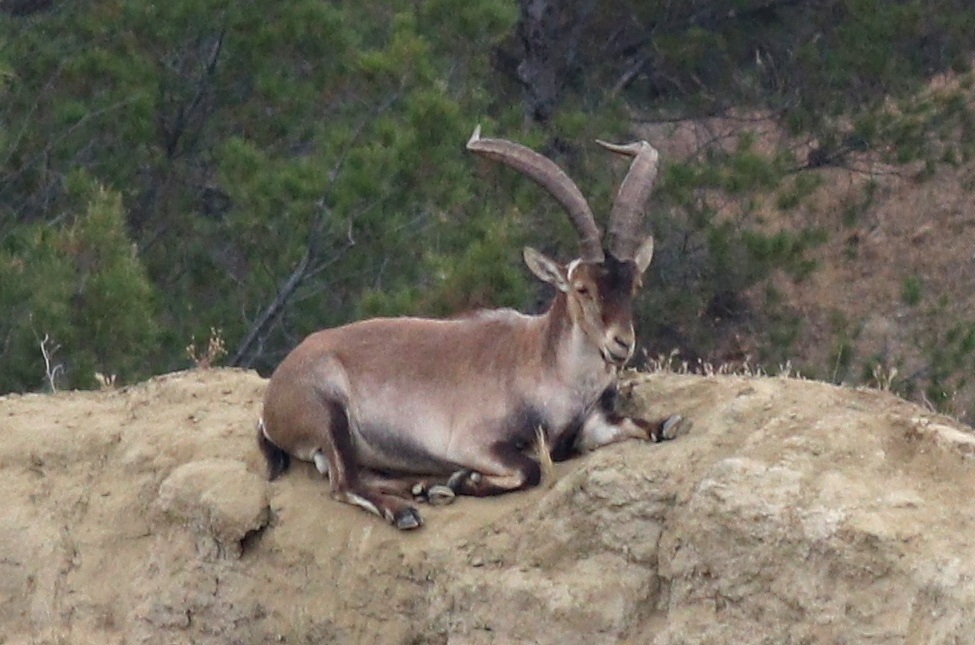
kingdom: Animalia
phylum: Chordata
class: Mammalia
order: Artiodactyla
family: Bovidae
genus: Capra
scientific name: Capra pyrenaica
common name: Spanish ibex
